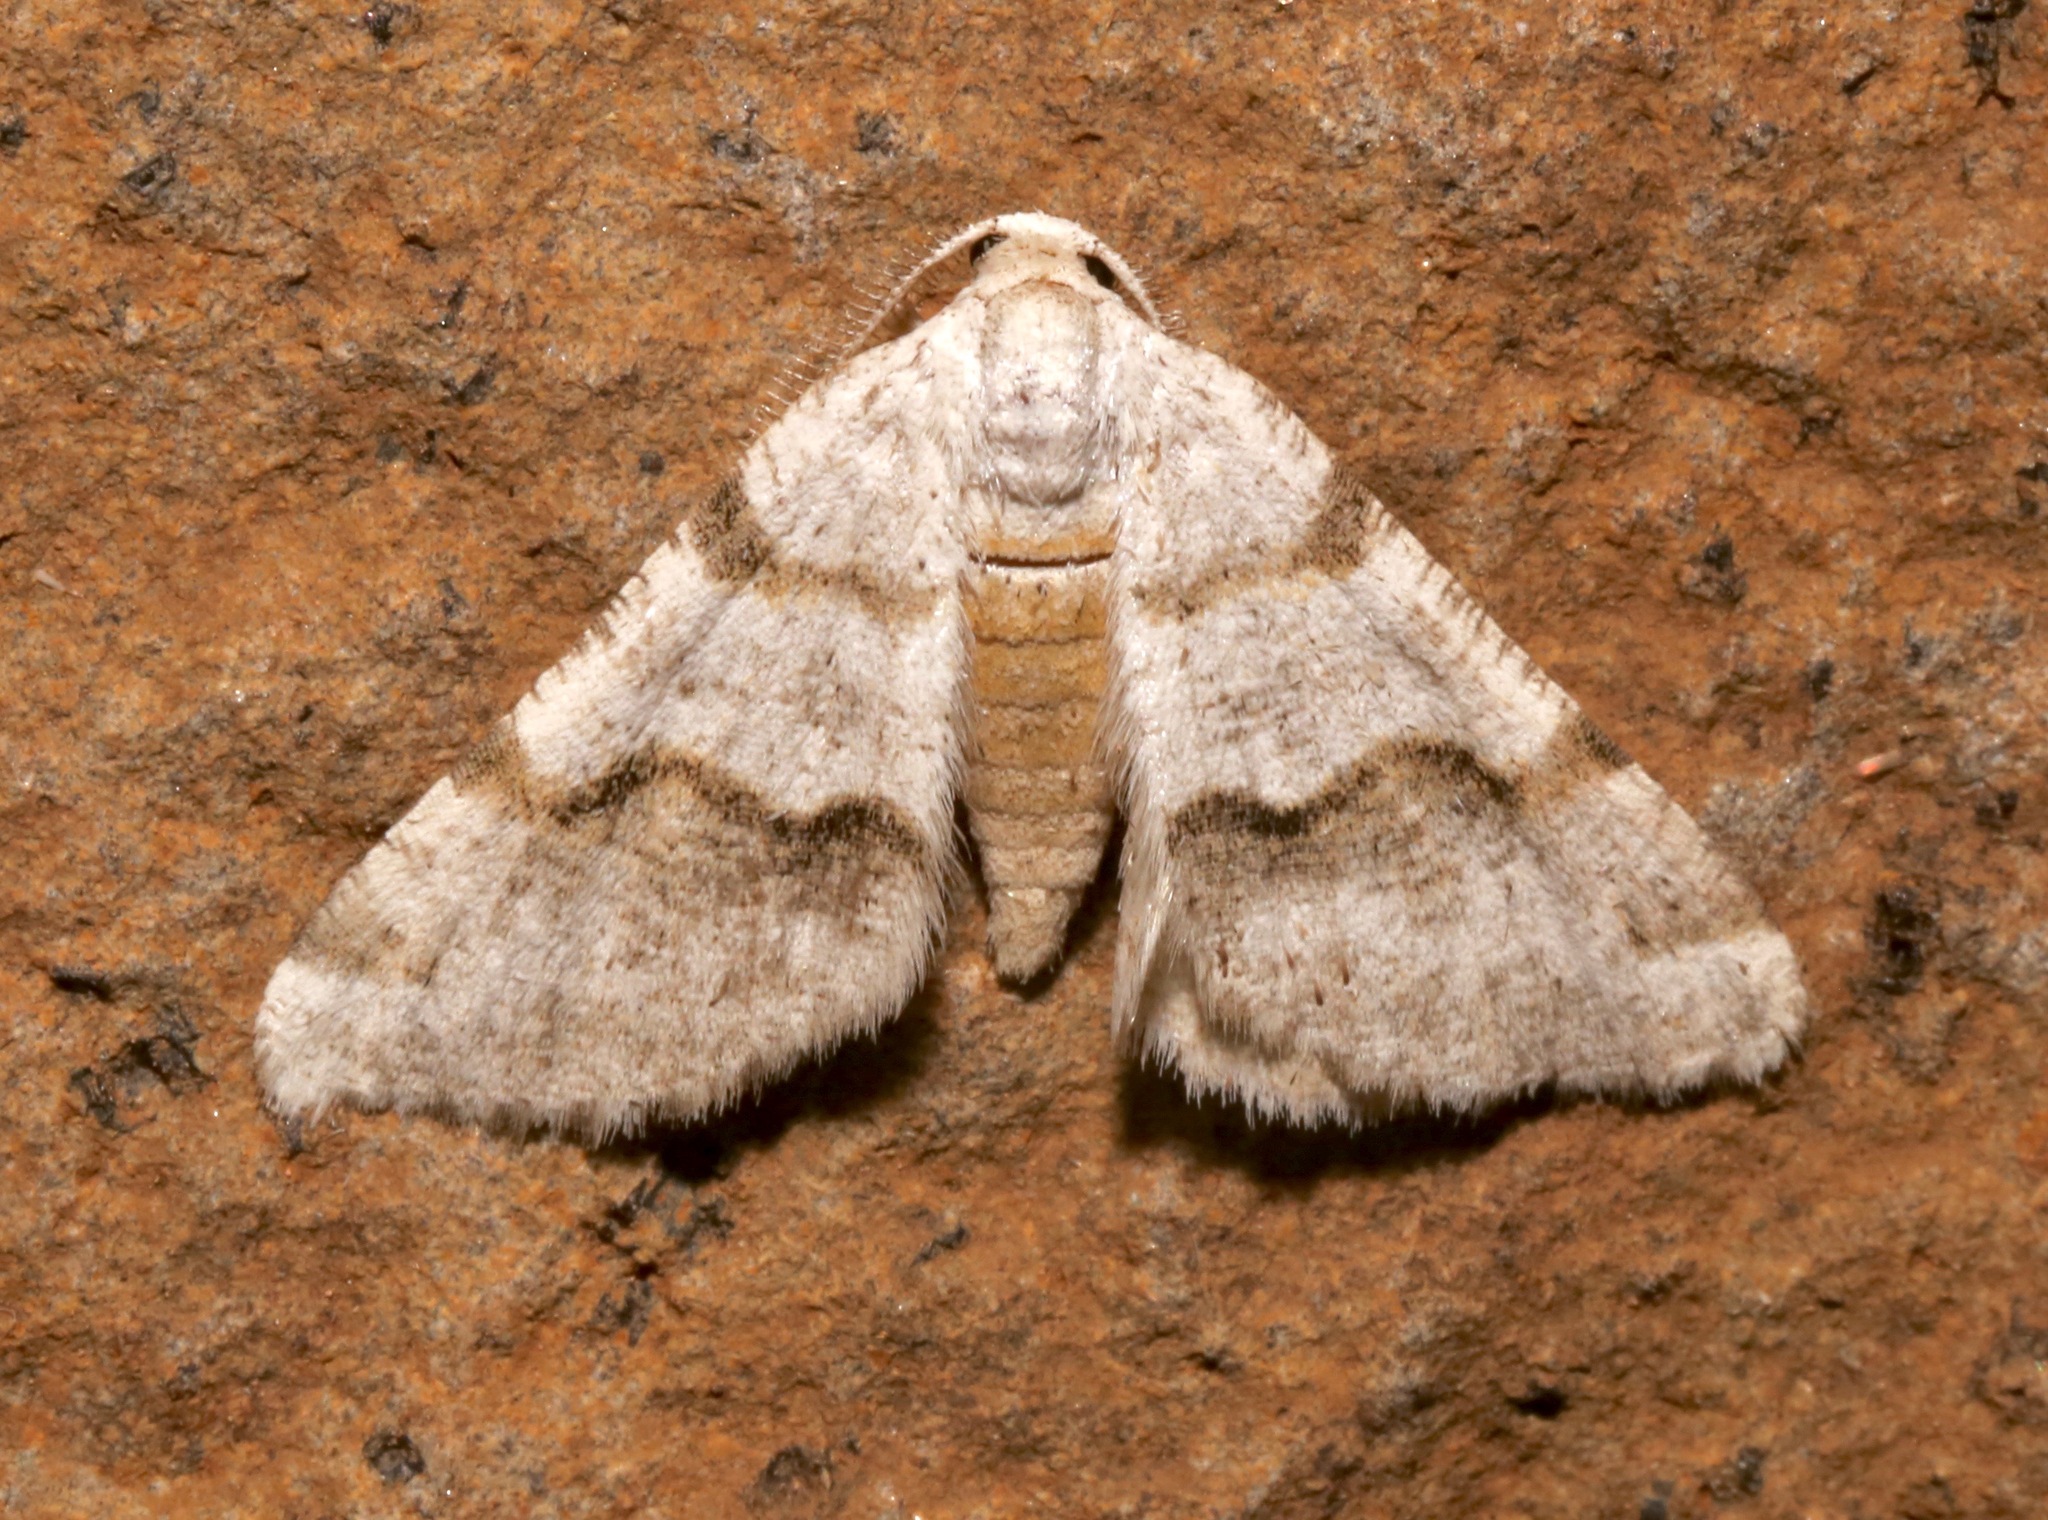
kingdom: Animalia
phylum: Arthropoda
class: Insecta
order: Lepidoptera
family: Geometridae
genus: Macaria
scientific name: Macaria pallipennata
